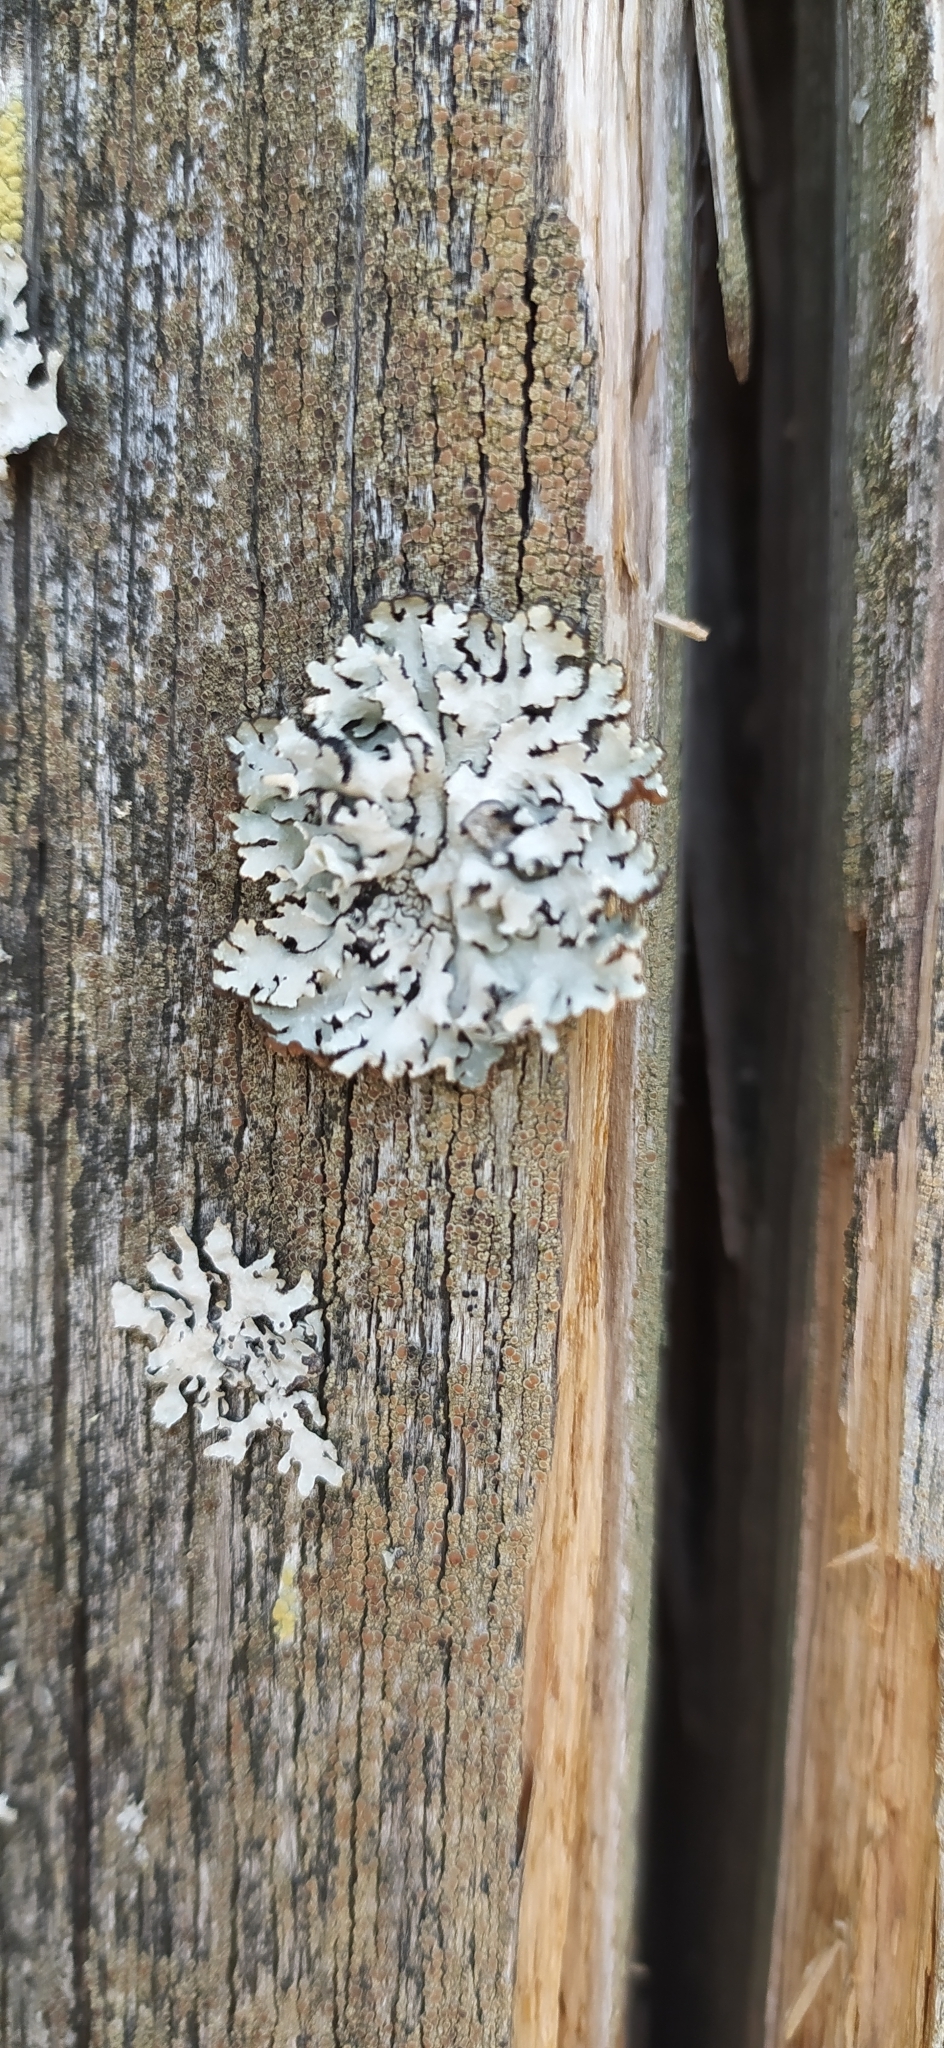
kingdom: Fungi
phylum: Ascomycota
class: Lecanoromycetes
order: Lecanorales
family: Parmeliaceae
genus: Hypogymnia
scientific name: Hypogymnia physodes
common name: Dark crottle
